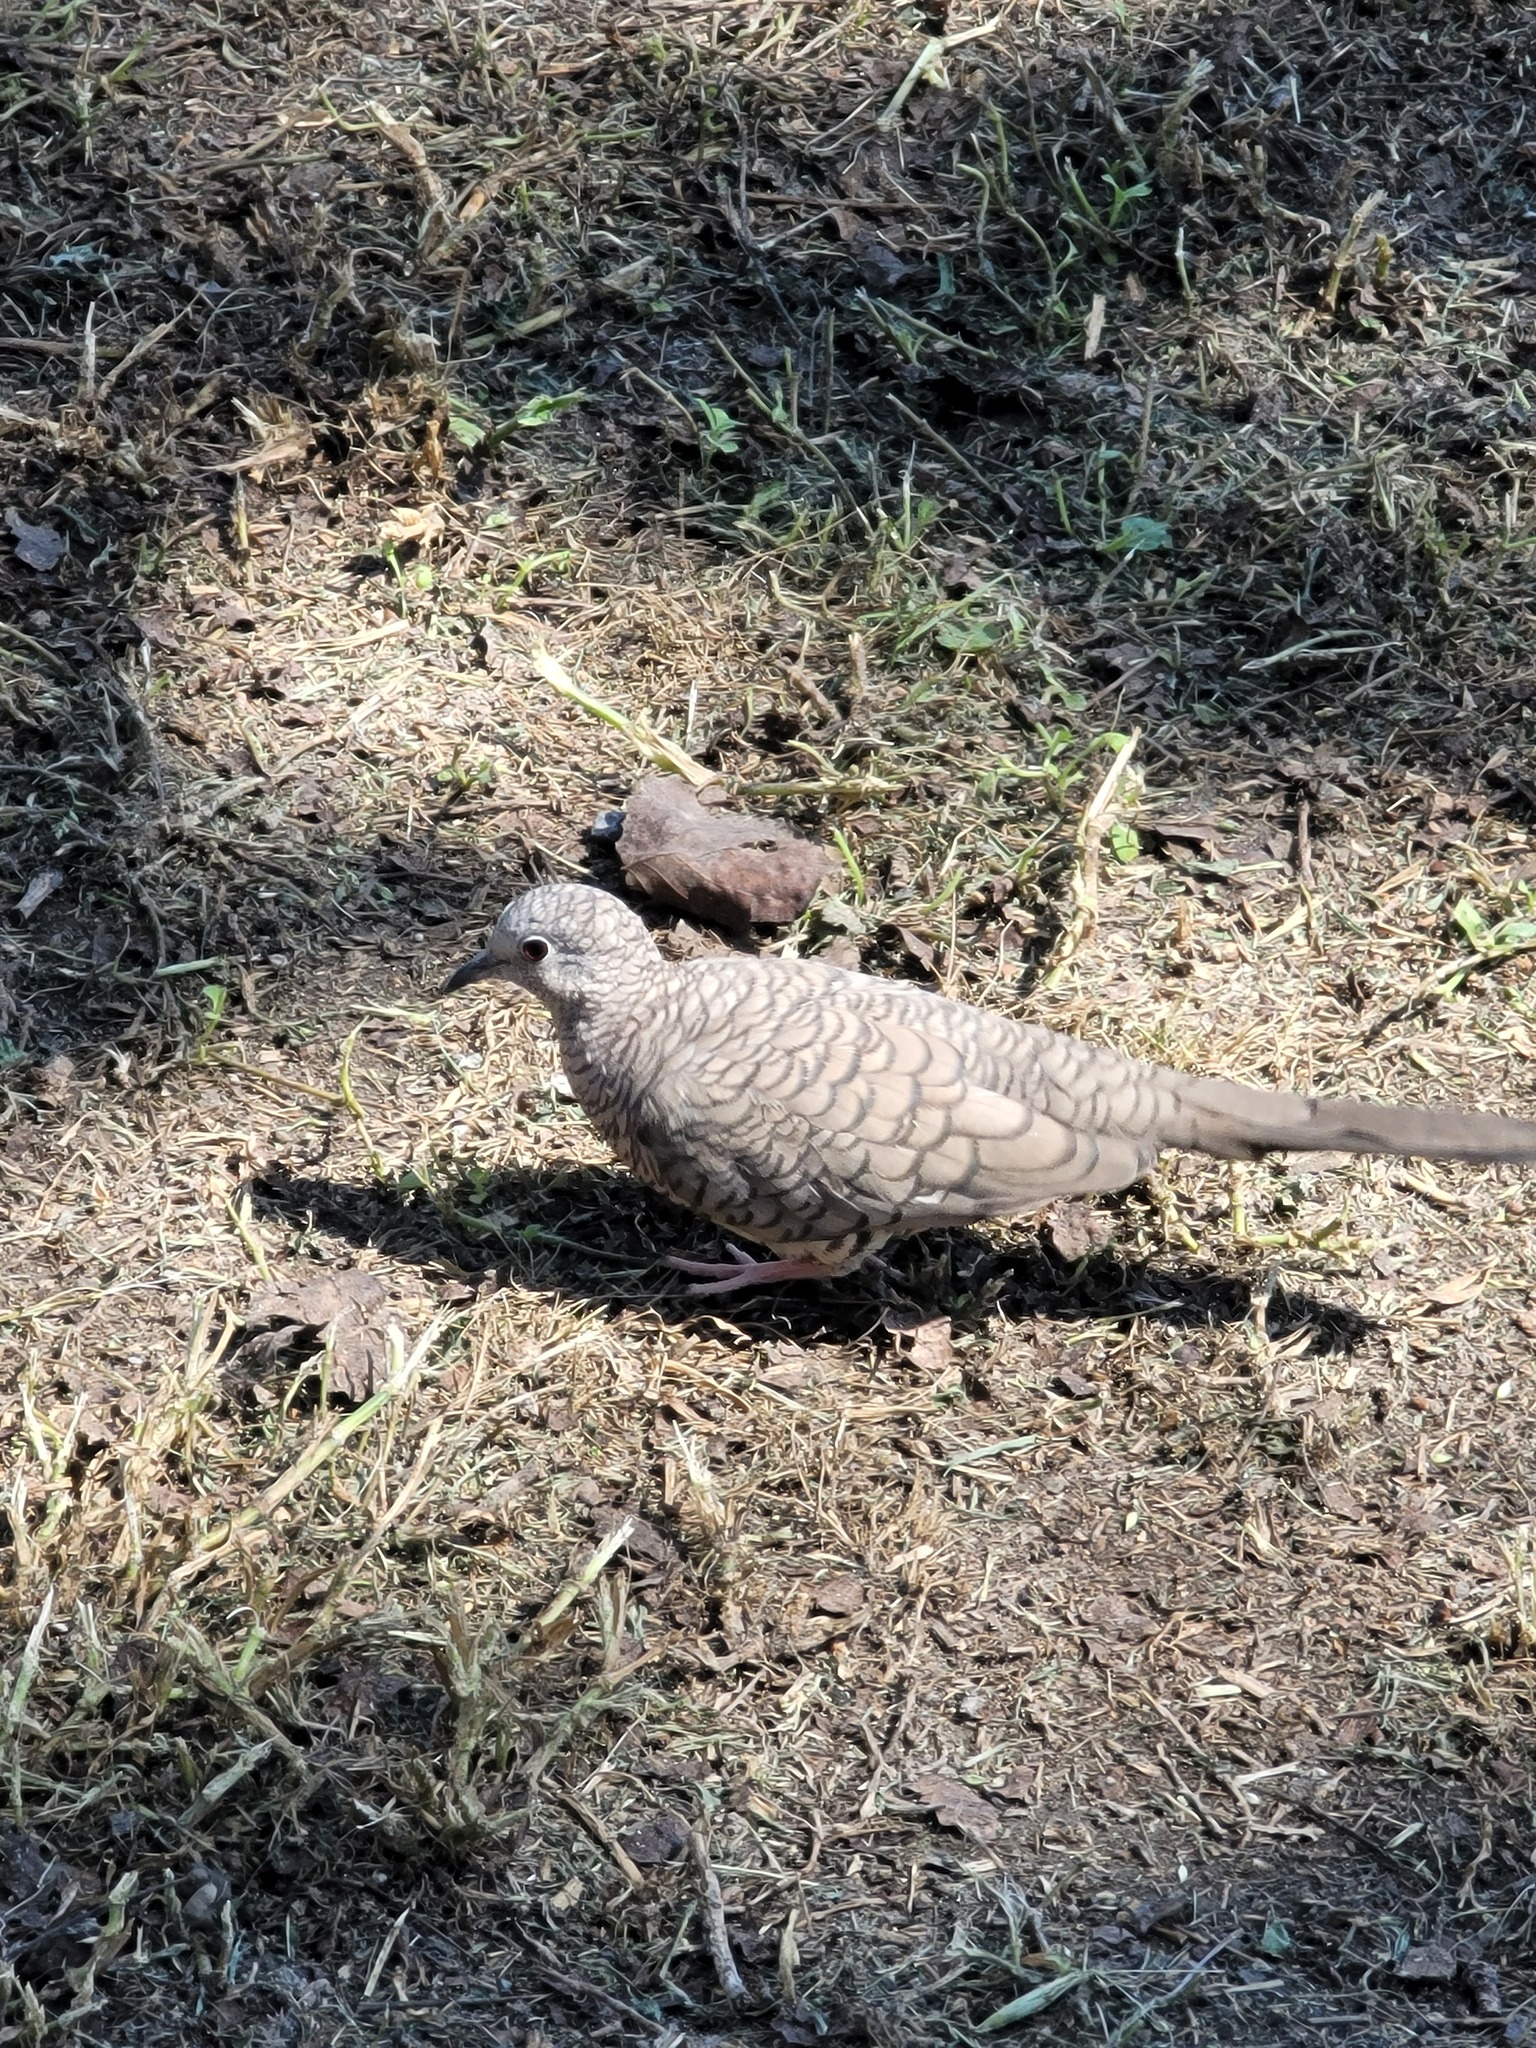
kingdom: Animalia
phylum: Chordata
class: Aves
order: Columbiformes
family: Columbidae
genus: Columbina
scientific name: Columbina inca
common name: Inca dove
